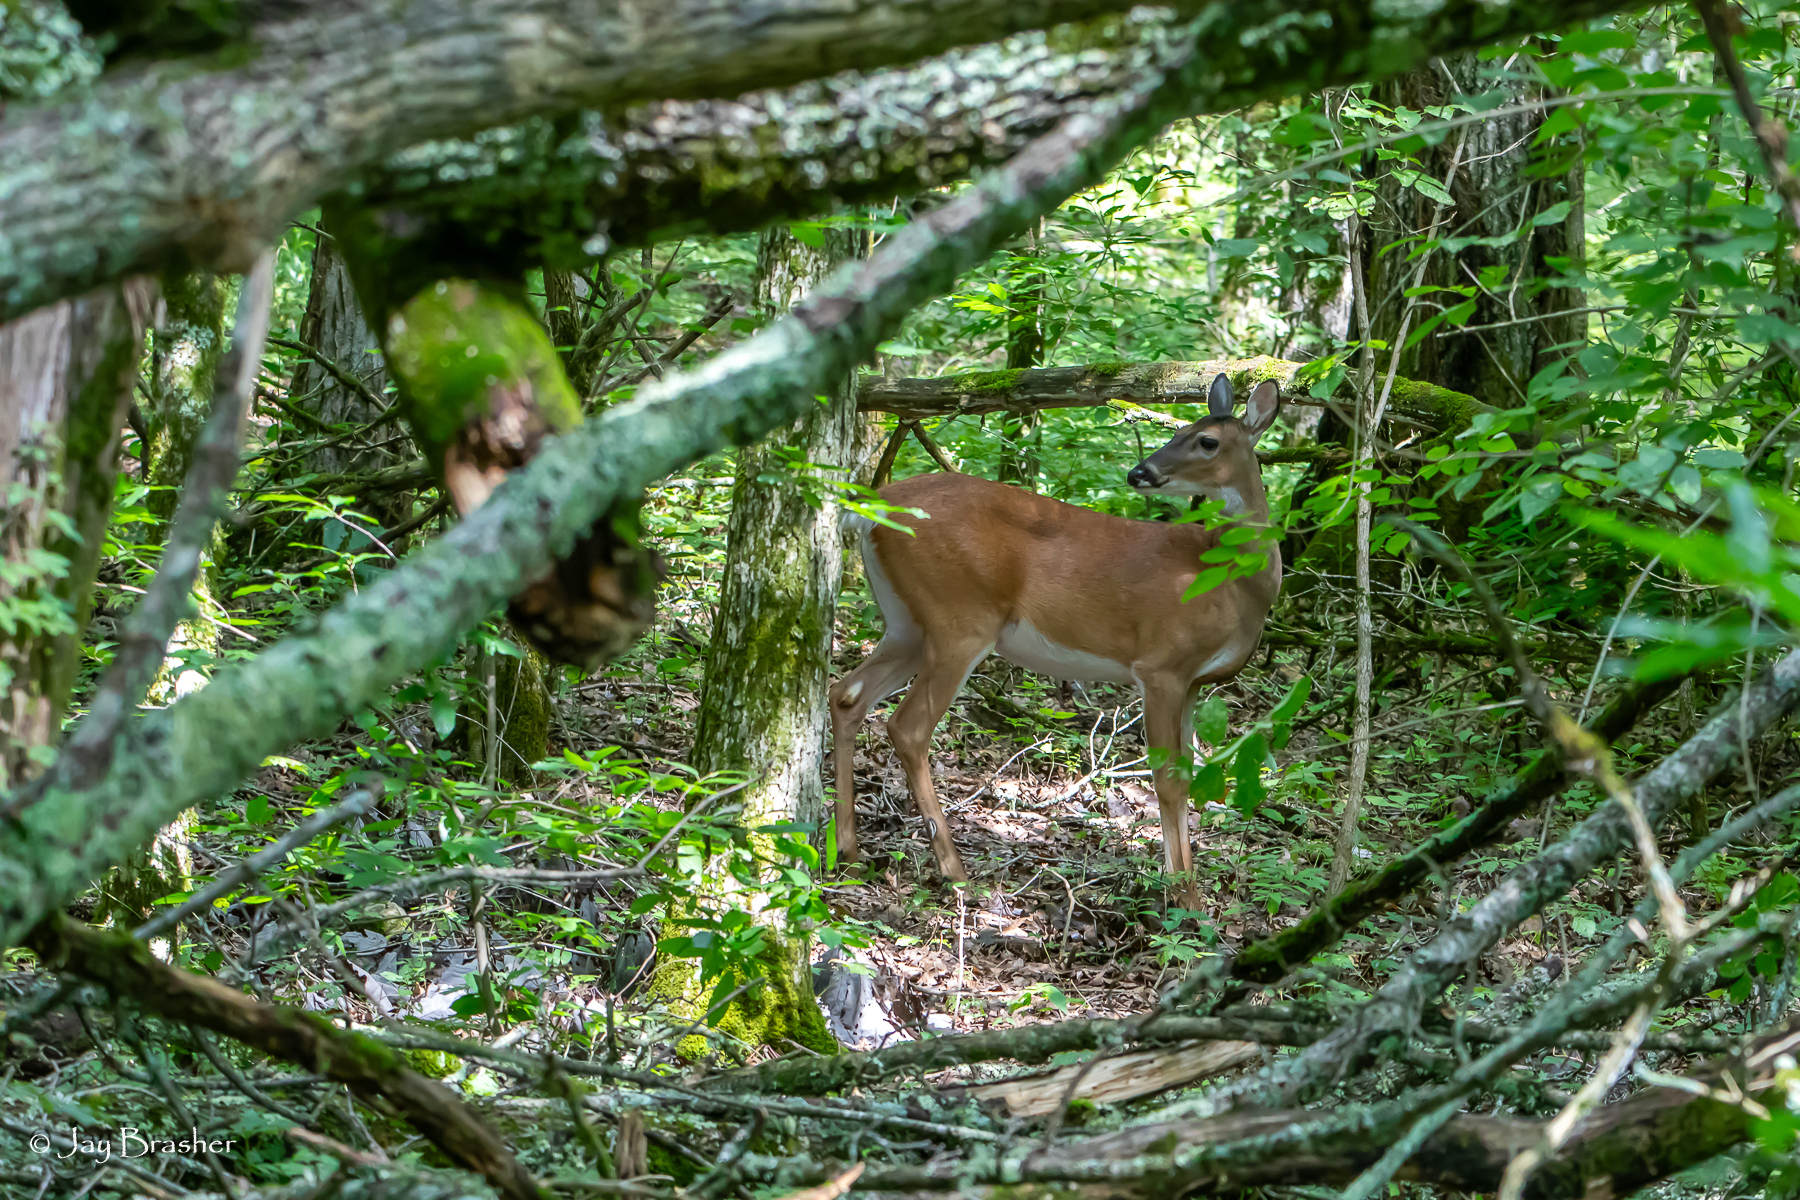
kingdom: Animalia
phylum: Chordata
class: Mammalia
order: Artiodactyla
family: Cervidae
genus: Odocoileus
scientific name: Odocoileus virginianus
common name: White-tailed deer
